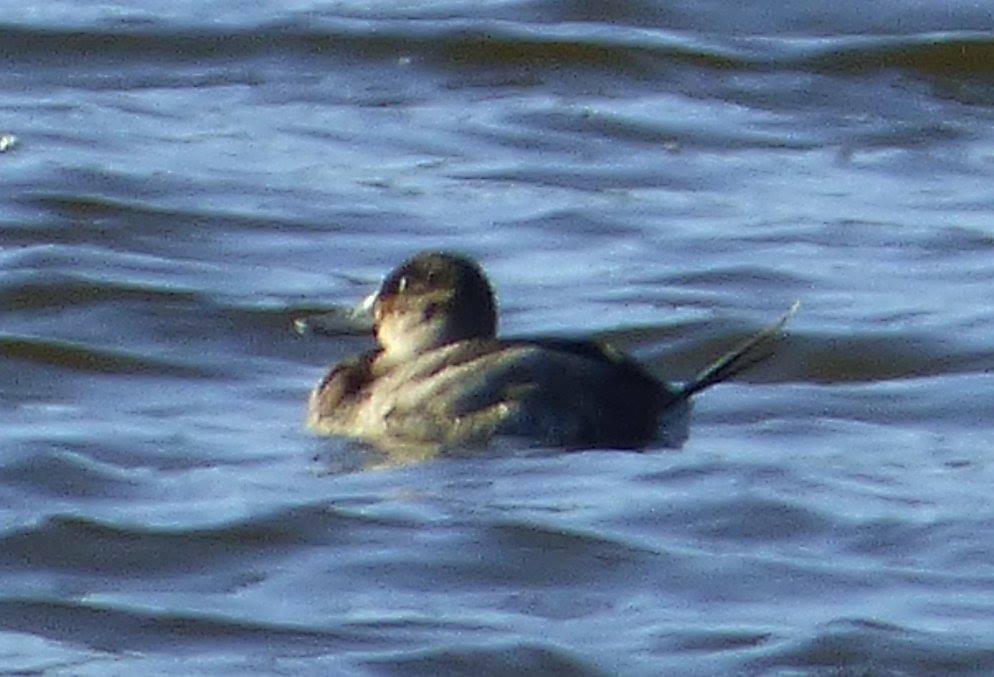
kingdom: Animalia
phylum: Chordata
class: Aves
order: Anseriformes
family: Anatidae
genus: Oxyura
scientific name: Oxyura jamaicensis
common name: Ruddy duck
